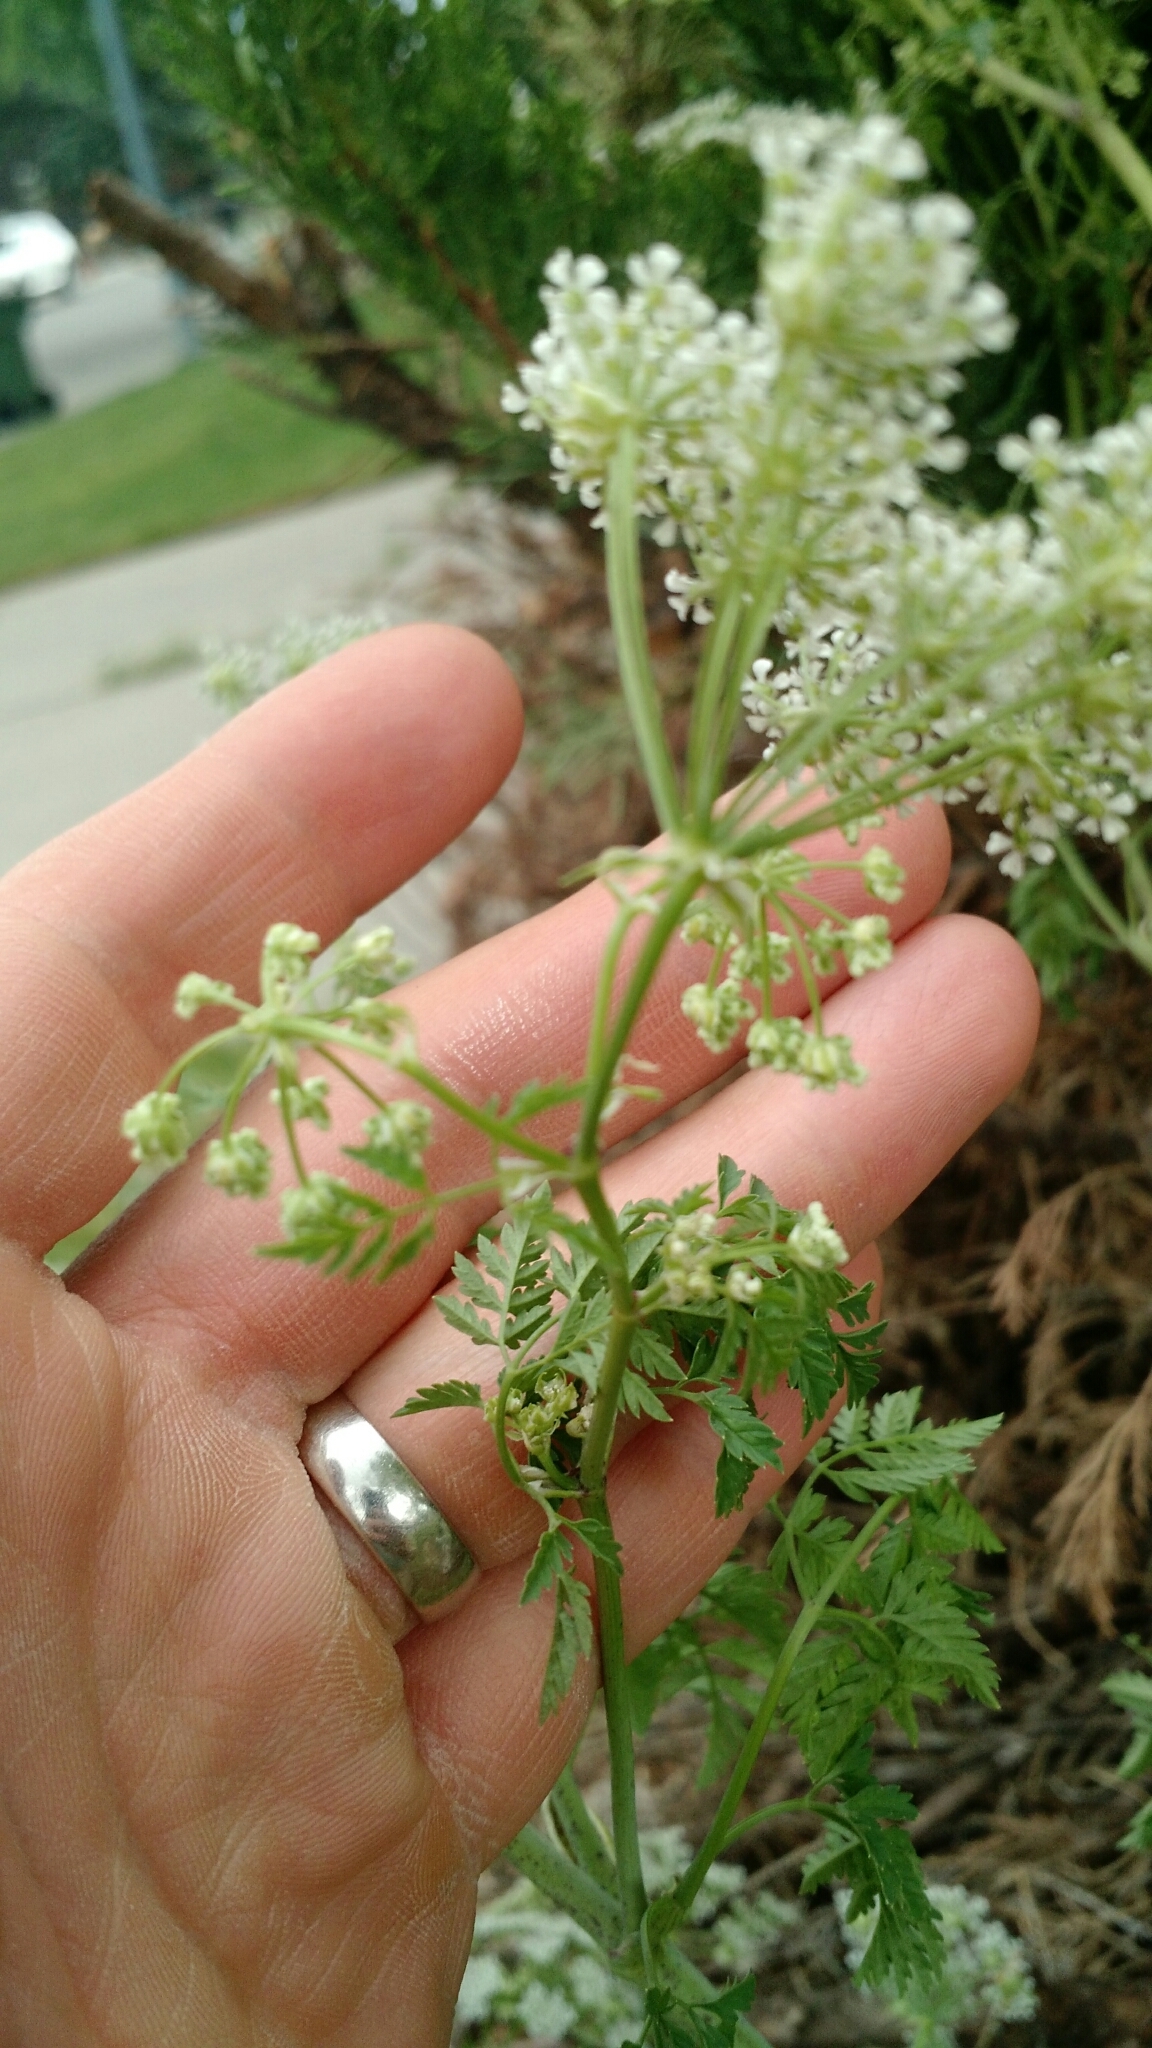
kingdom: Plantae
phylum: Tracheophyta
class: Magnoliopsida
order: Apiales
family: Apiaceae
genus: Conium
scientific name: Conium maculatum
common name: Hemlock
